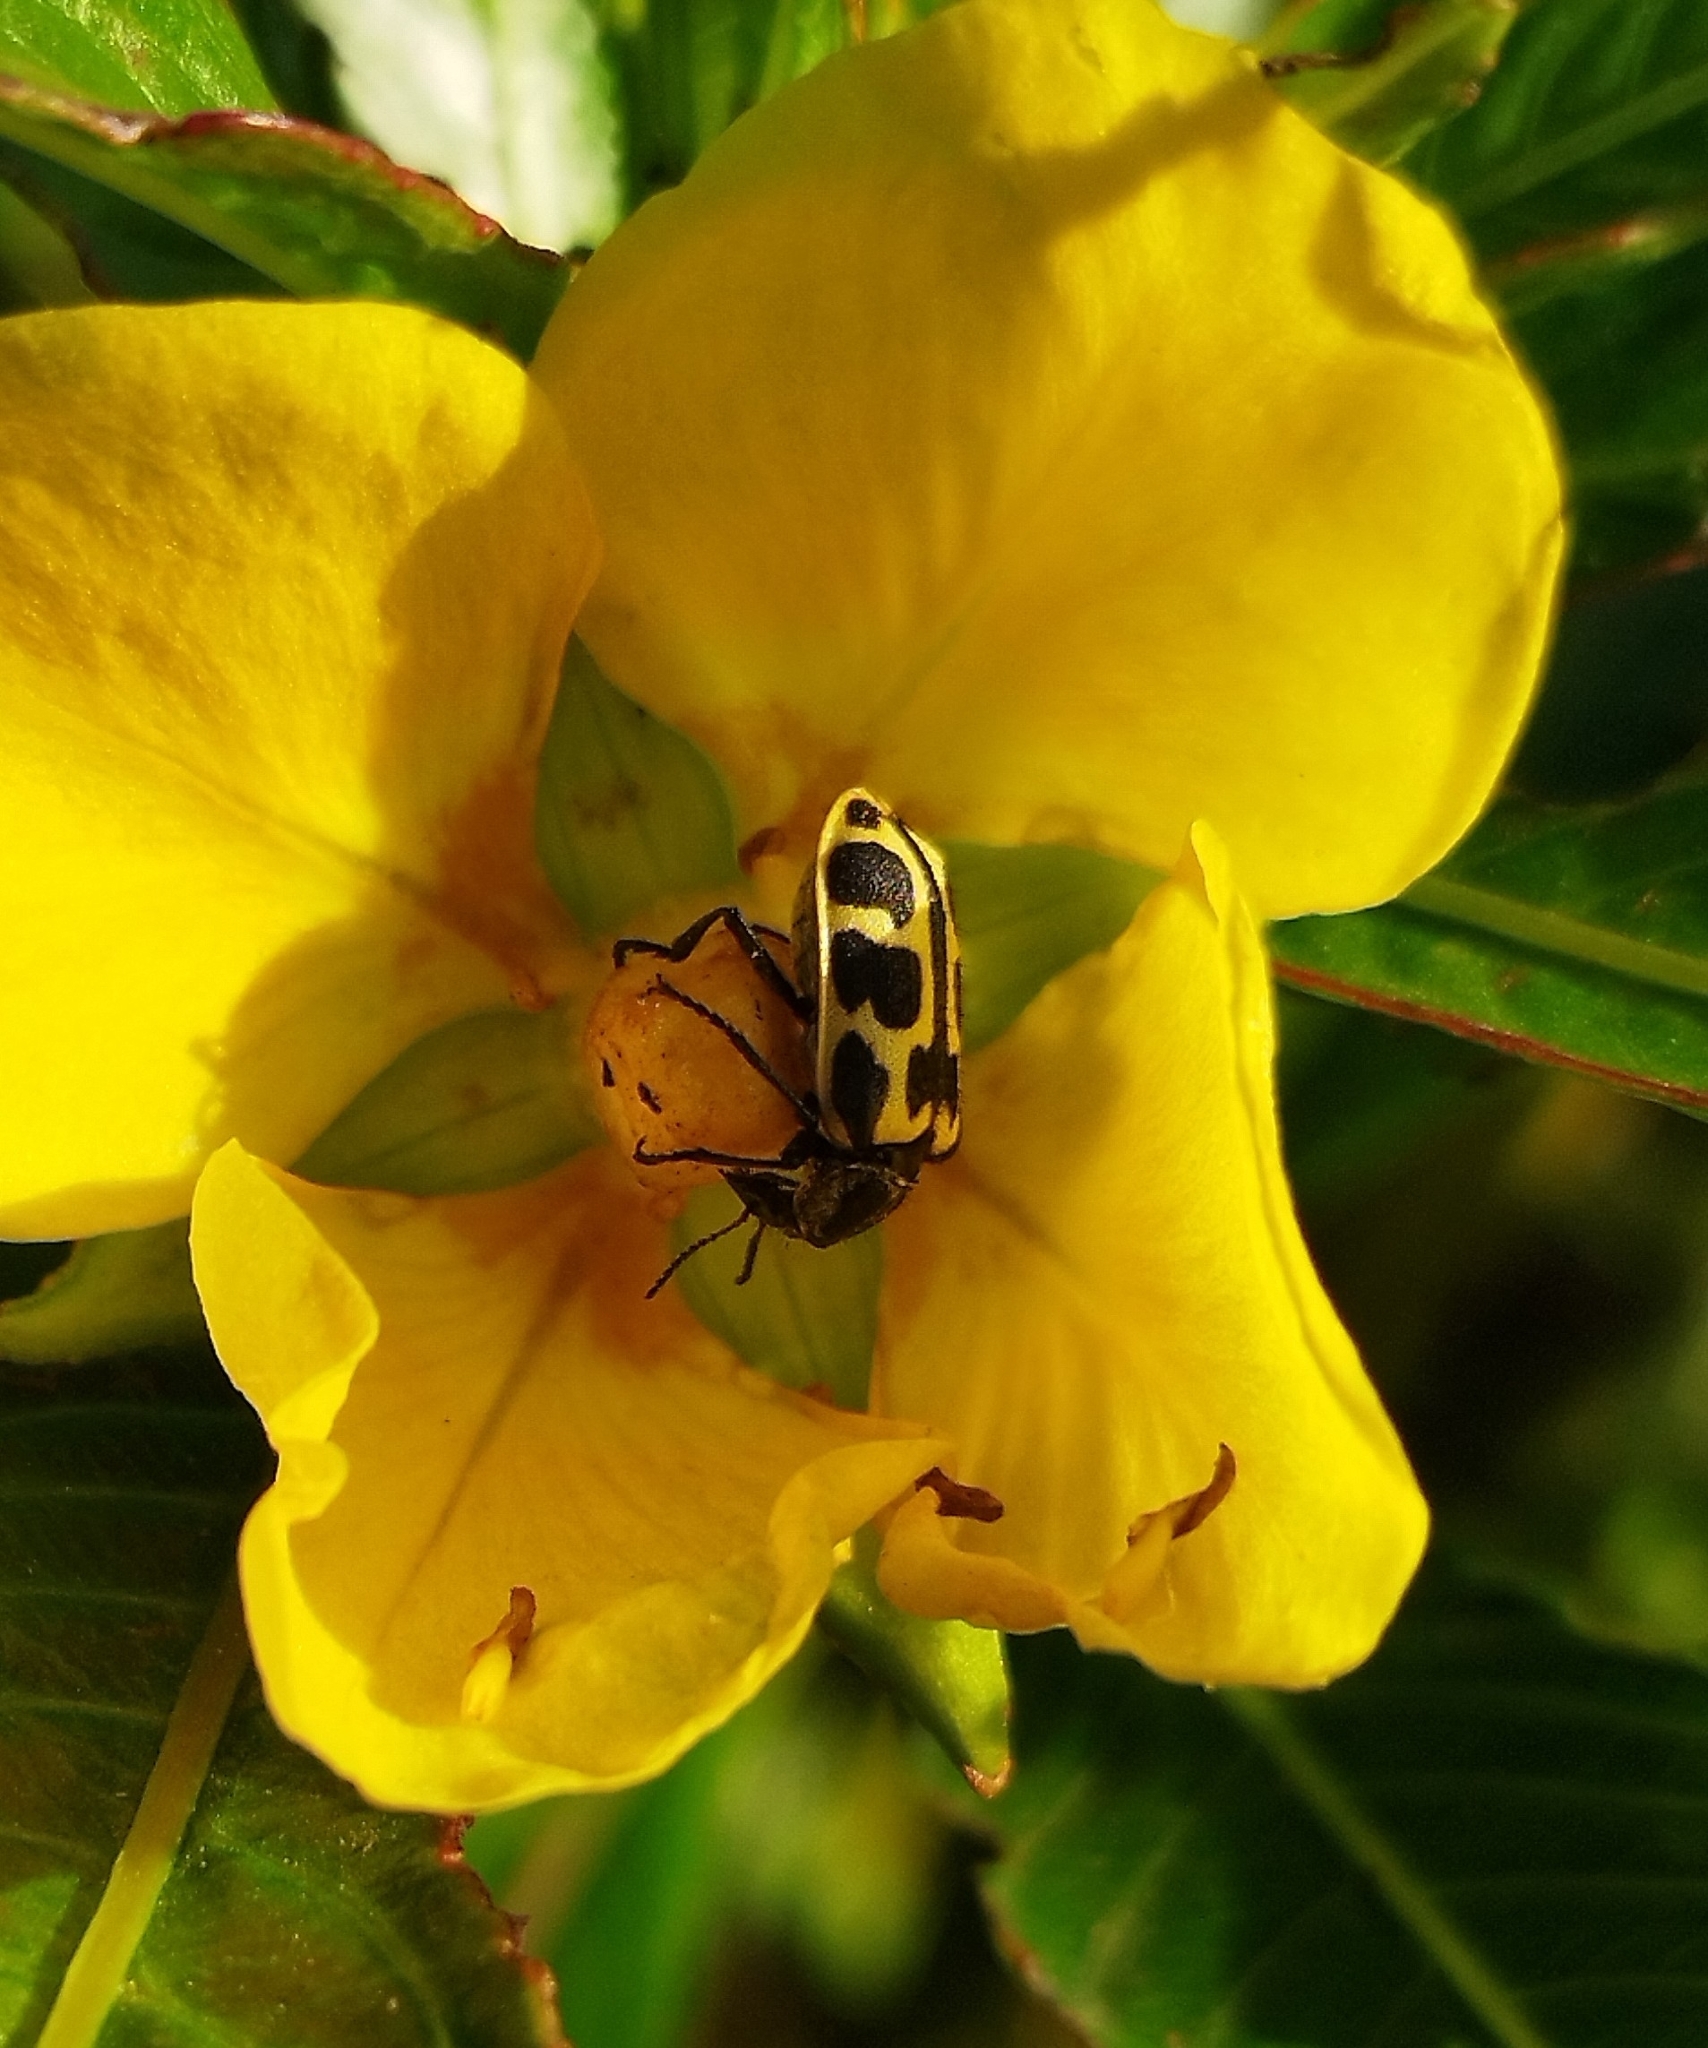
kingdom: Animalia
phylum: Arthropoda
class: Insecta
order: Coleoptera
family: Melyridae
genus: Astylus
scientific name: Astylus atromaculatus
